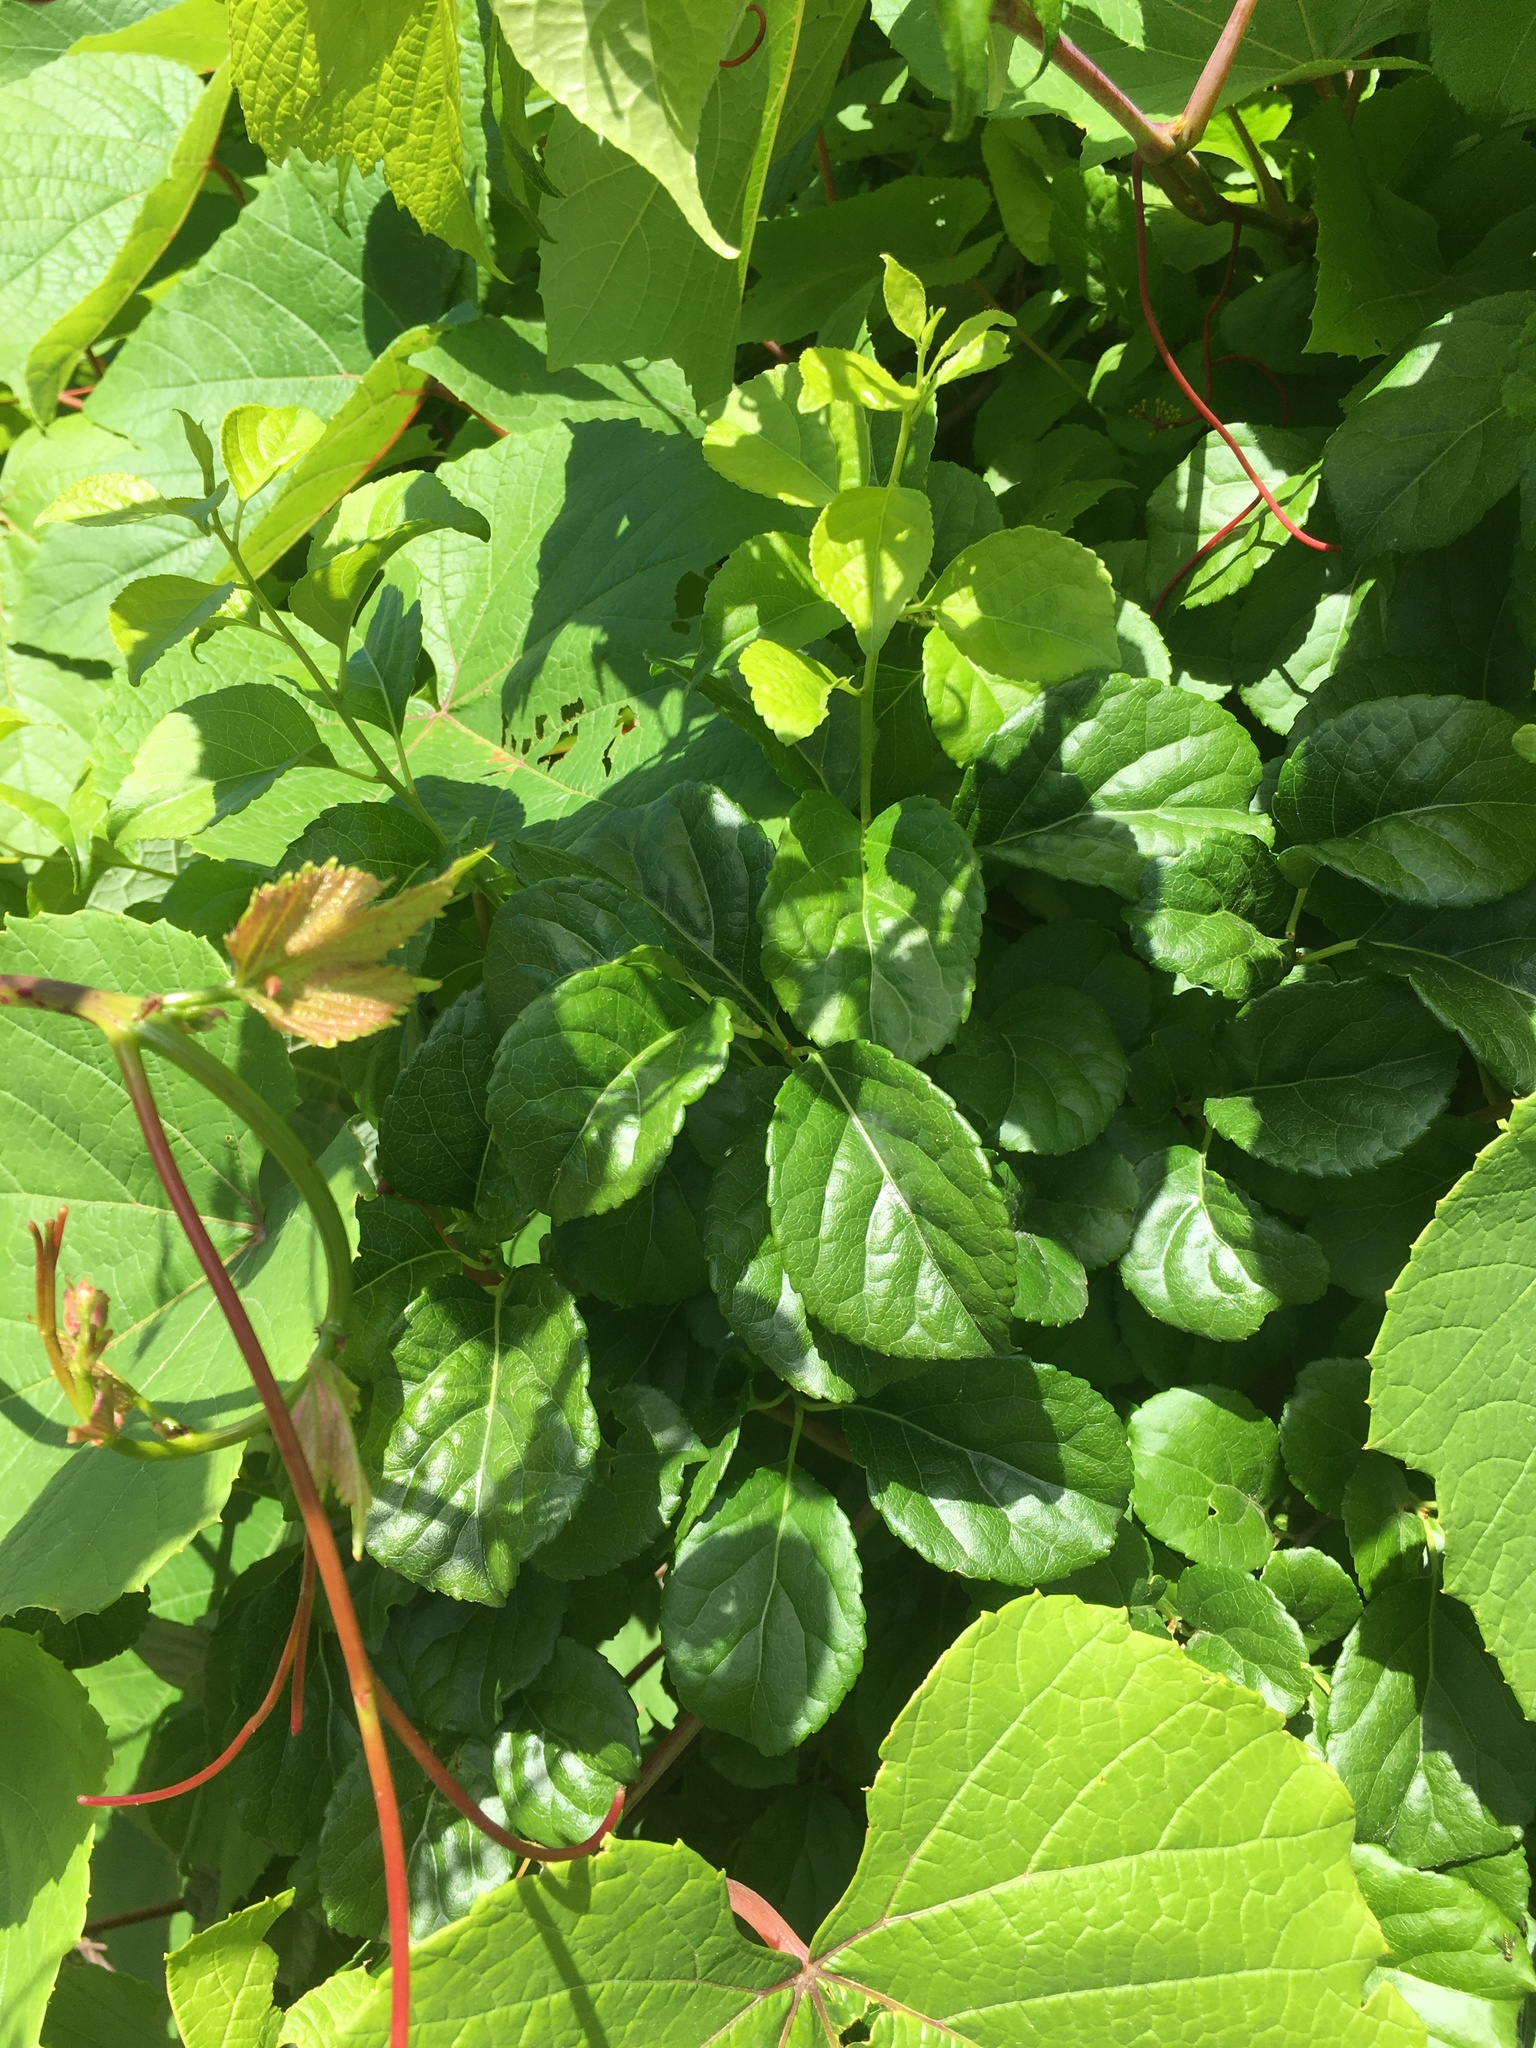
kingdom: Plantae
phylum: Tracheophyta
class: Magnoliopsida
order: Celastrales
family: Celastraceae
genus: Celastrus
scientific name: Celastrus orbiculatus
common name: Oriental bittersweet
